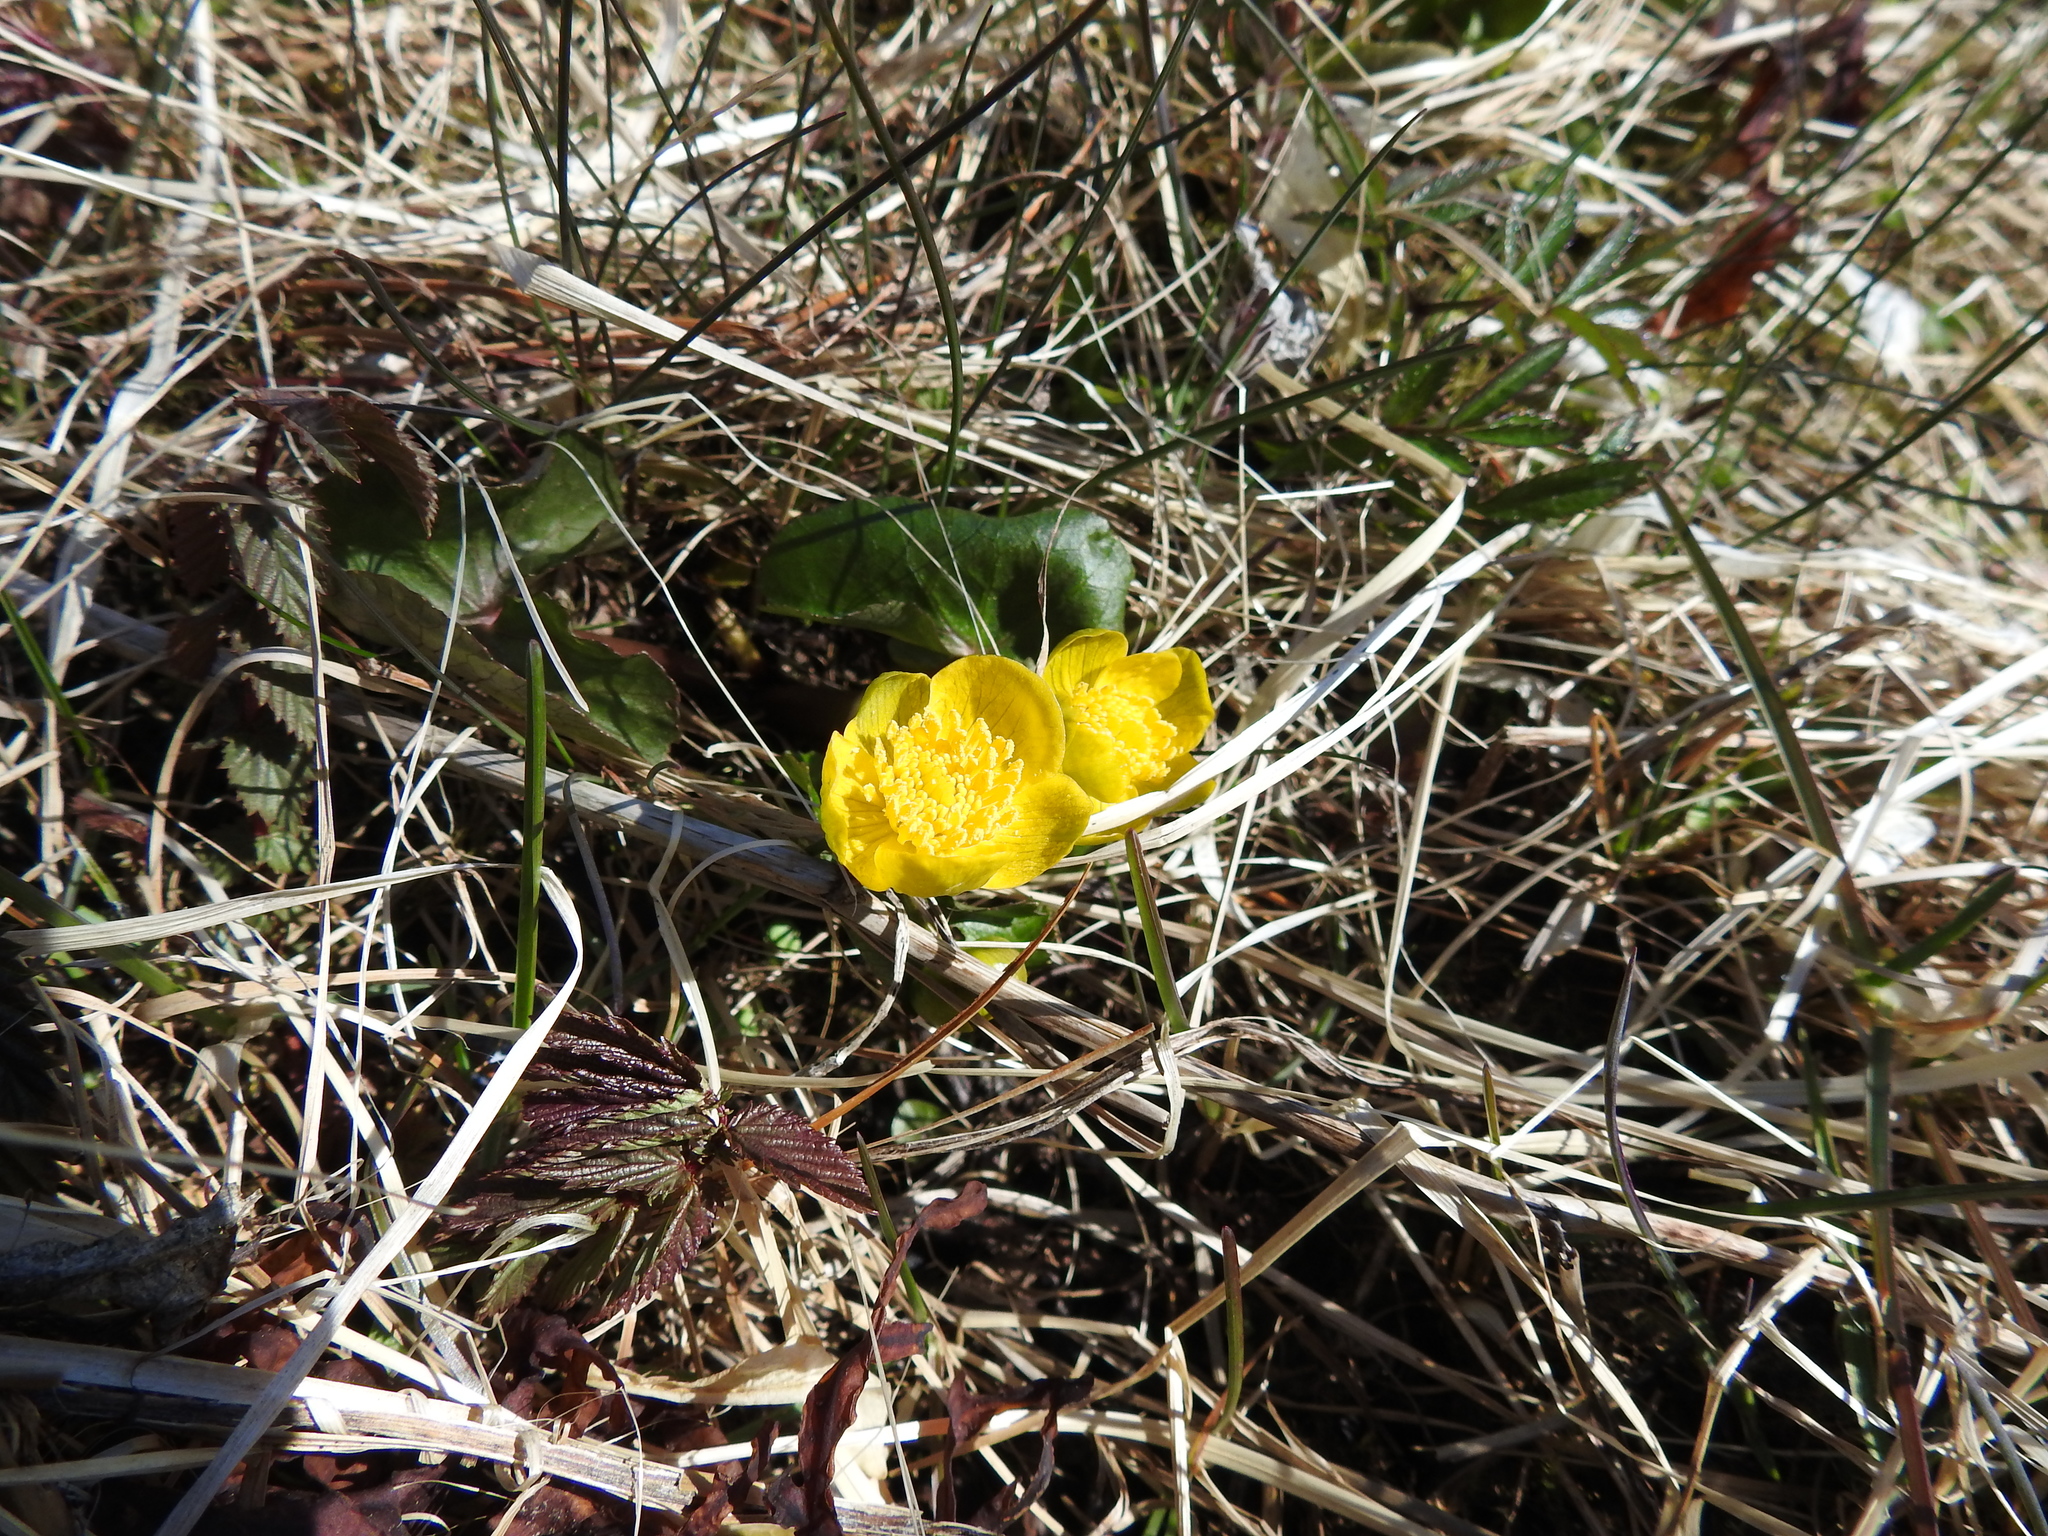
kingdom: Plantae
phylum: Tracheophyta
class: Magnoliopsida
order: Ranunculales
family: Ranunculaceae
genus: Caltha
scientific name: Caltha palustris
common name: Marsh marigold
